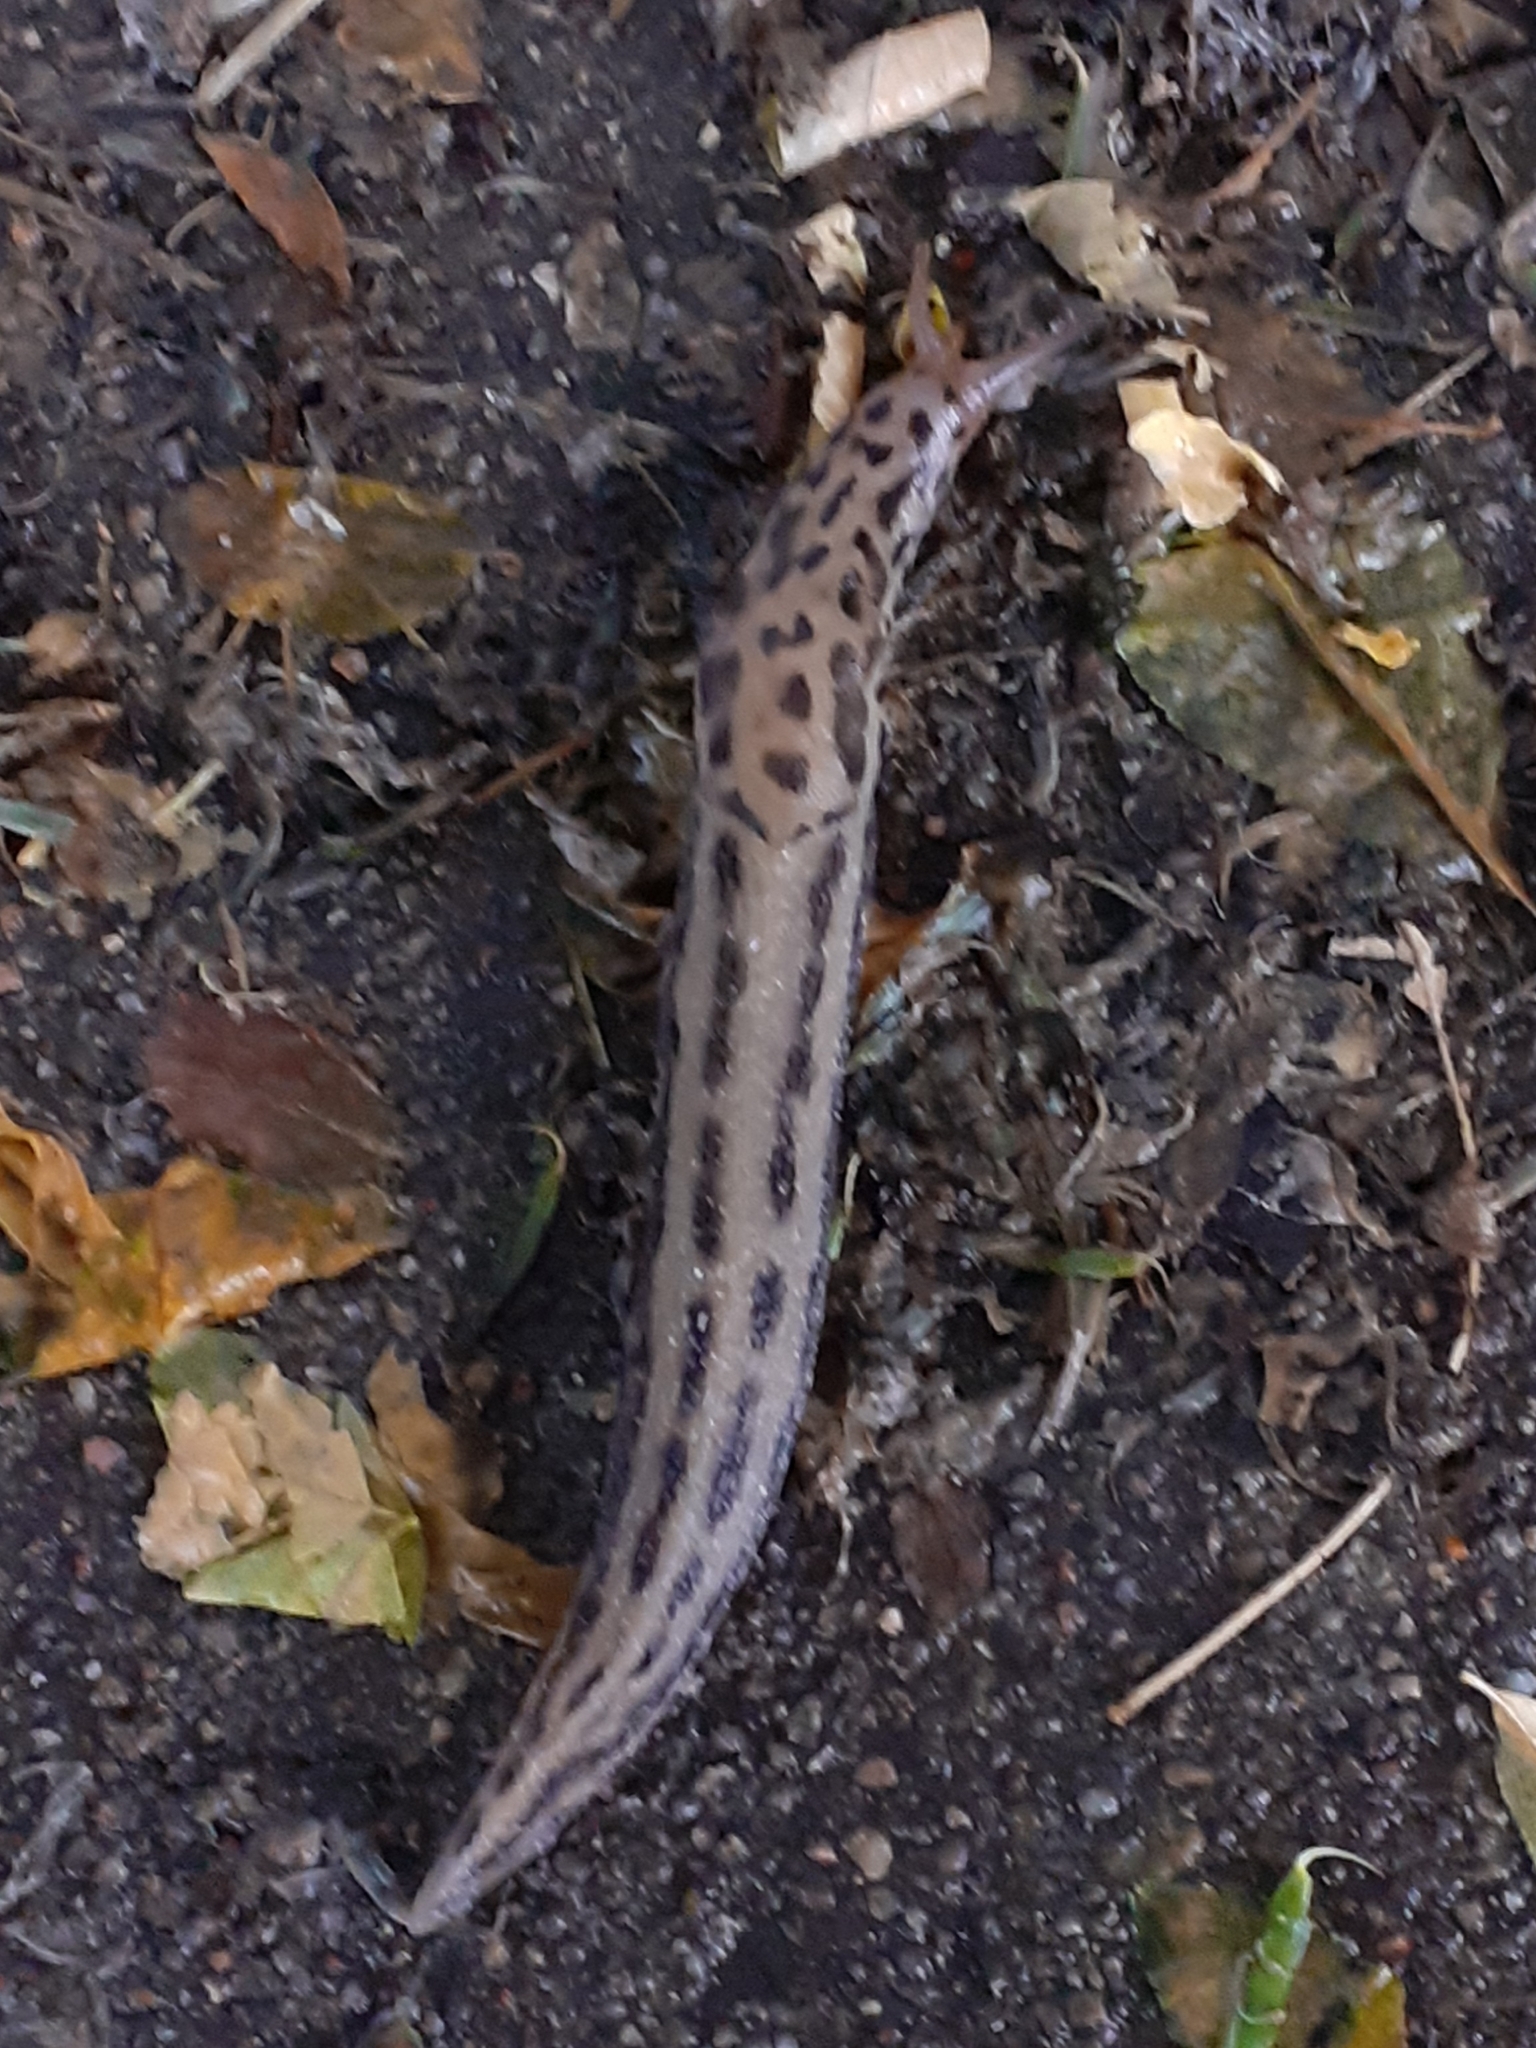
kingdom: Animalia
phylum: Mollusca
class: Gastropoda
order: Stylommatophora
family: Limacidae
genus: Limax
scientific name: Limax maximus
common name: Great grey slug
